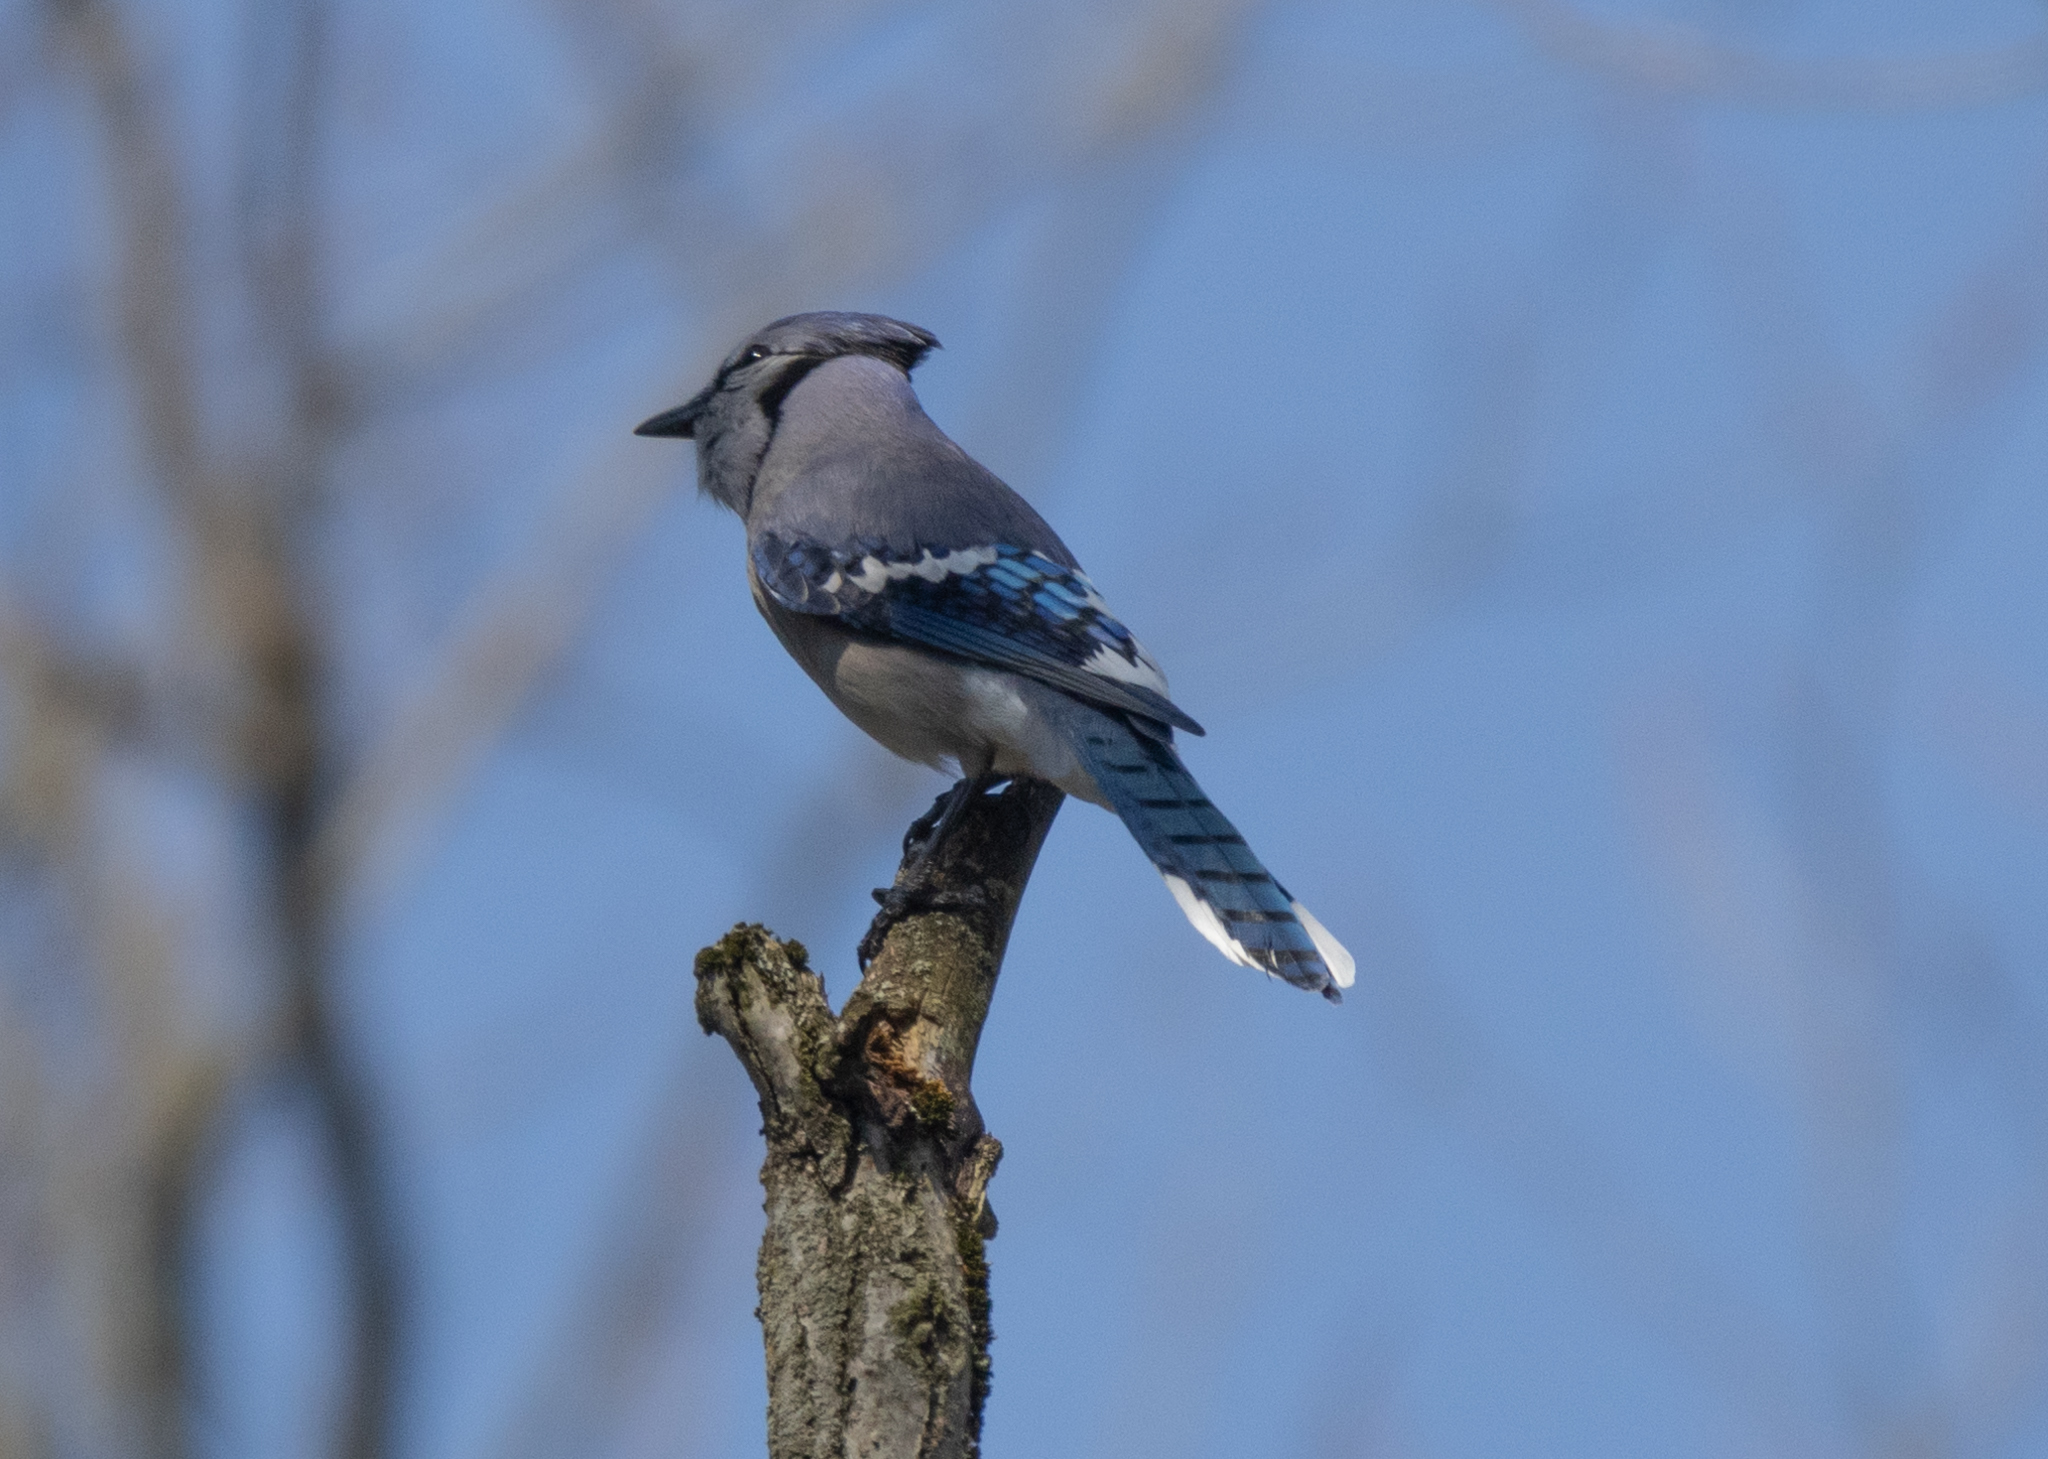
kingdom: Animalia
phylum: Chordata
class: Aves
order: Passeriformes
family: Corvidae
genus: Cyanocitta
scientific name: Cyanocitta cristata
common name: Blue jay
